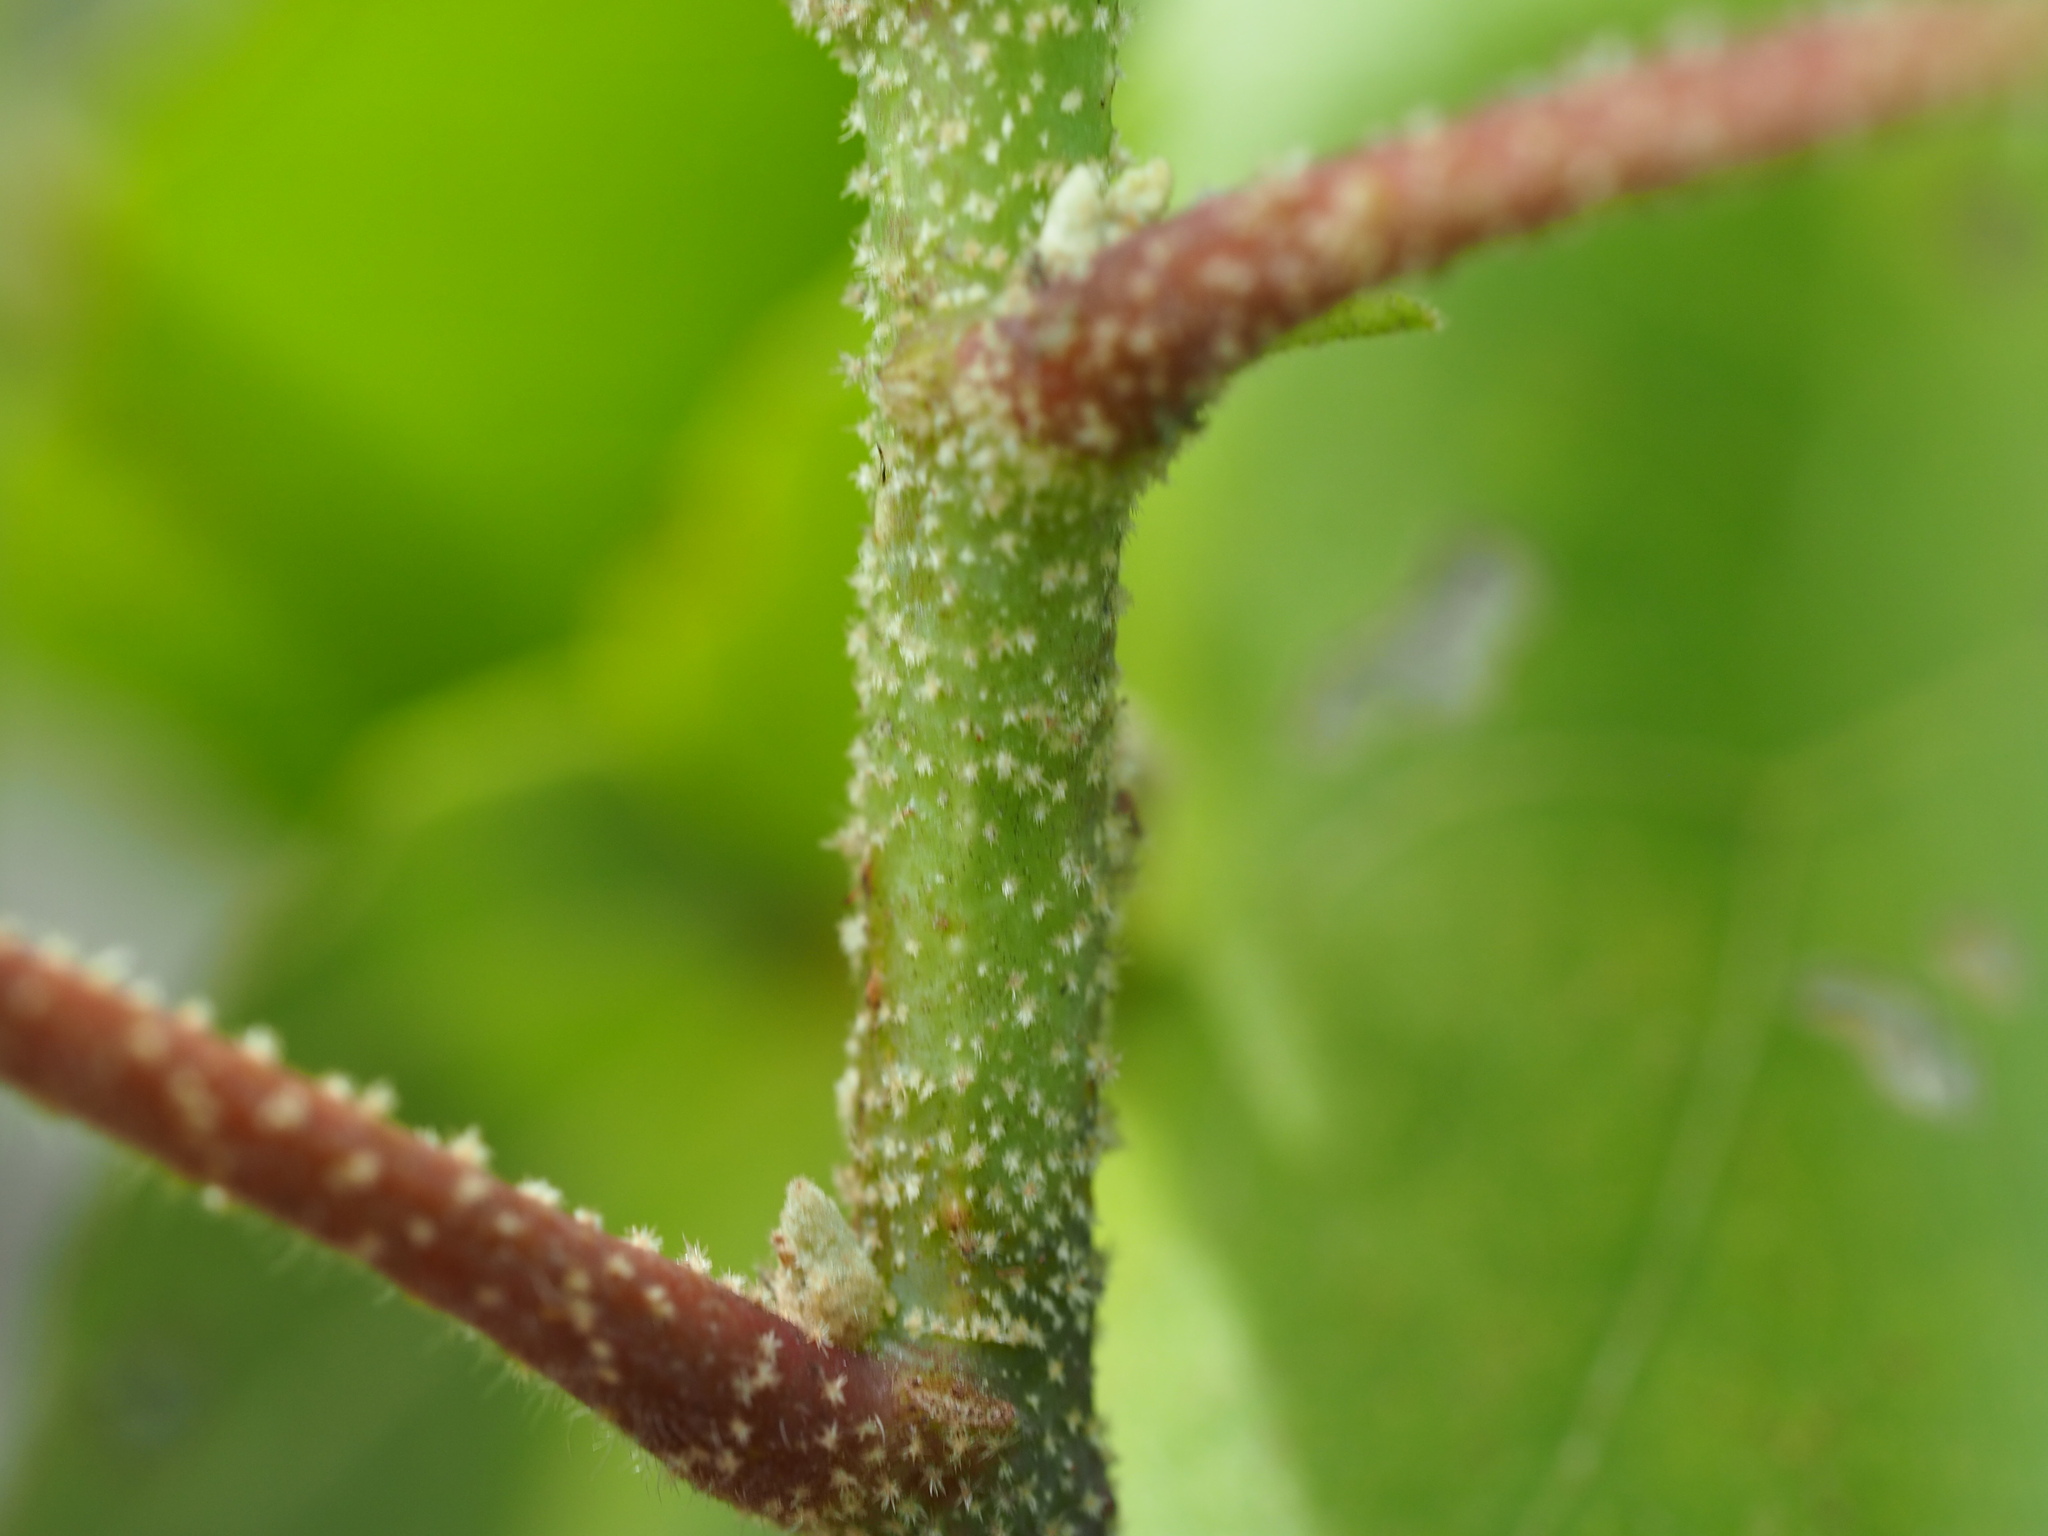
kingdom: Plantae
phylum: Tracheophyta
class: Magnoliopsida
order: Malvales
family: Malvaceae
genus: Hibiscus
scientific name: Hibiscus makinoi
